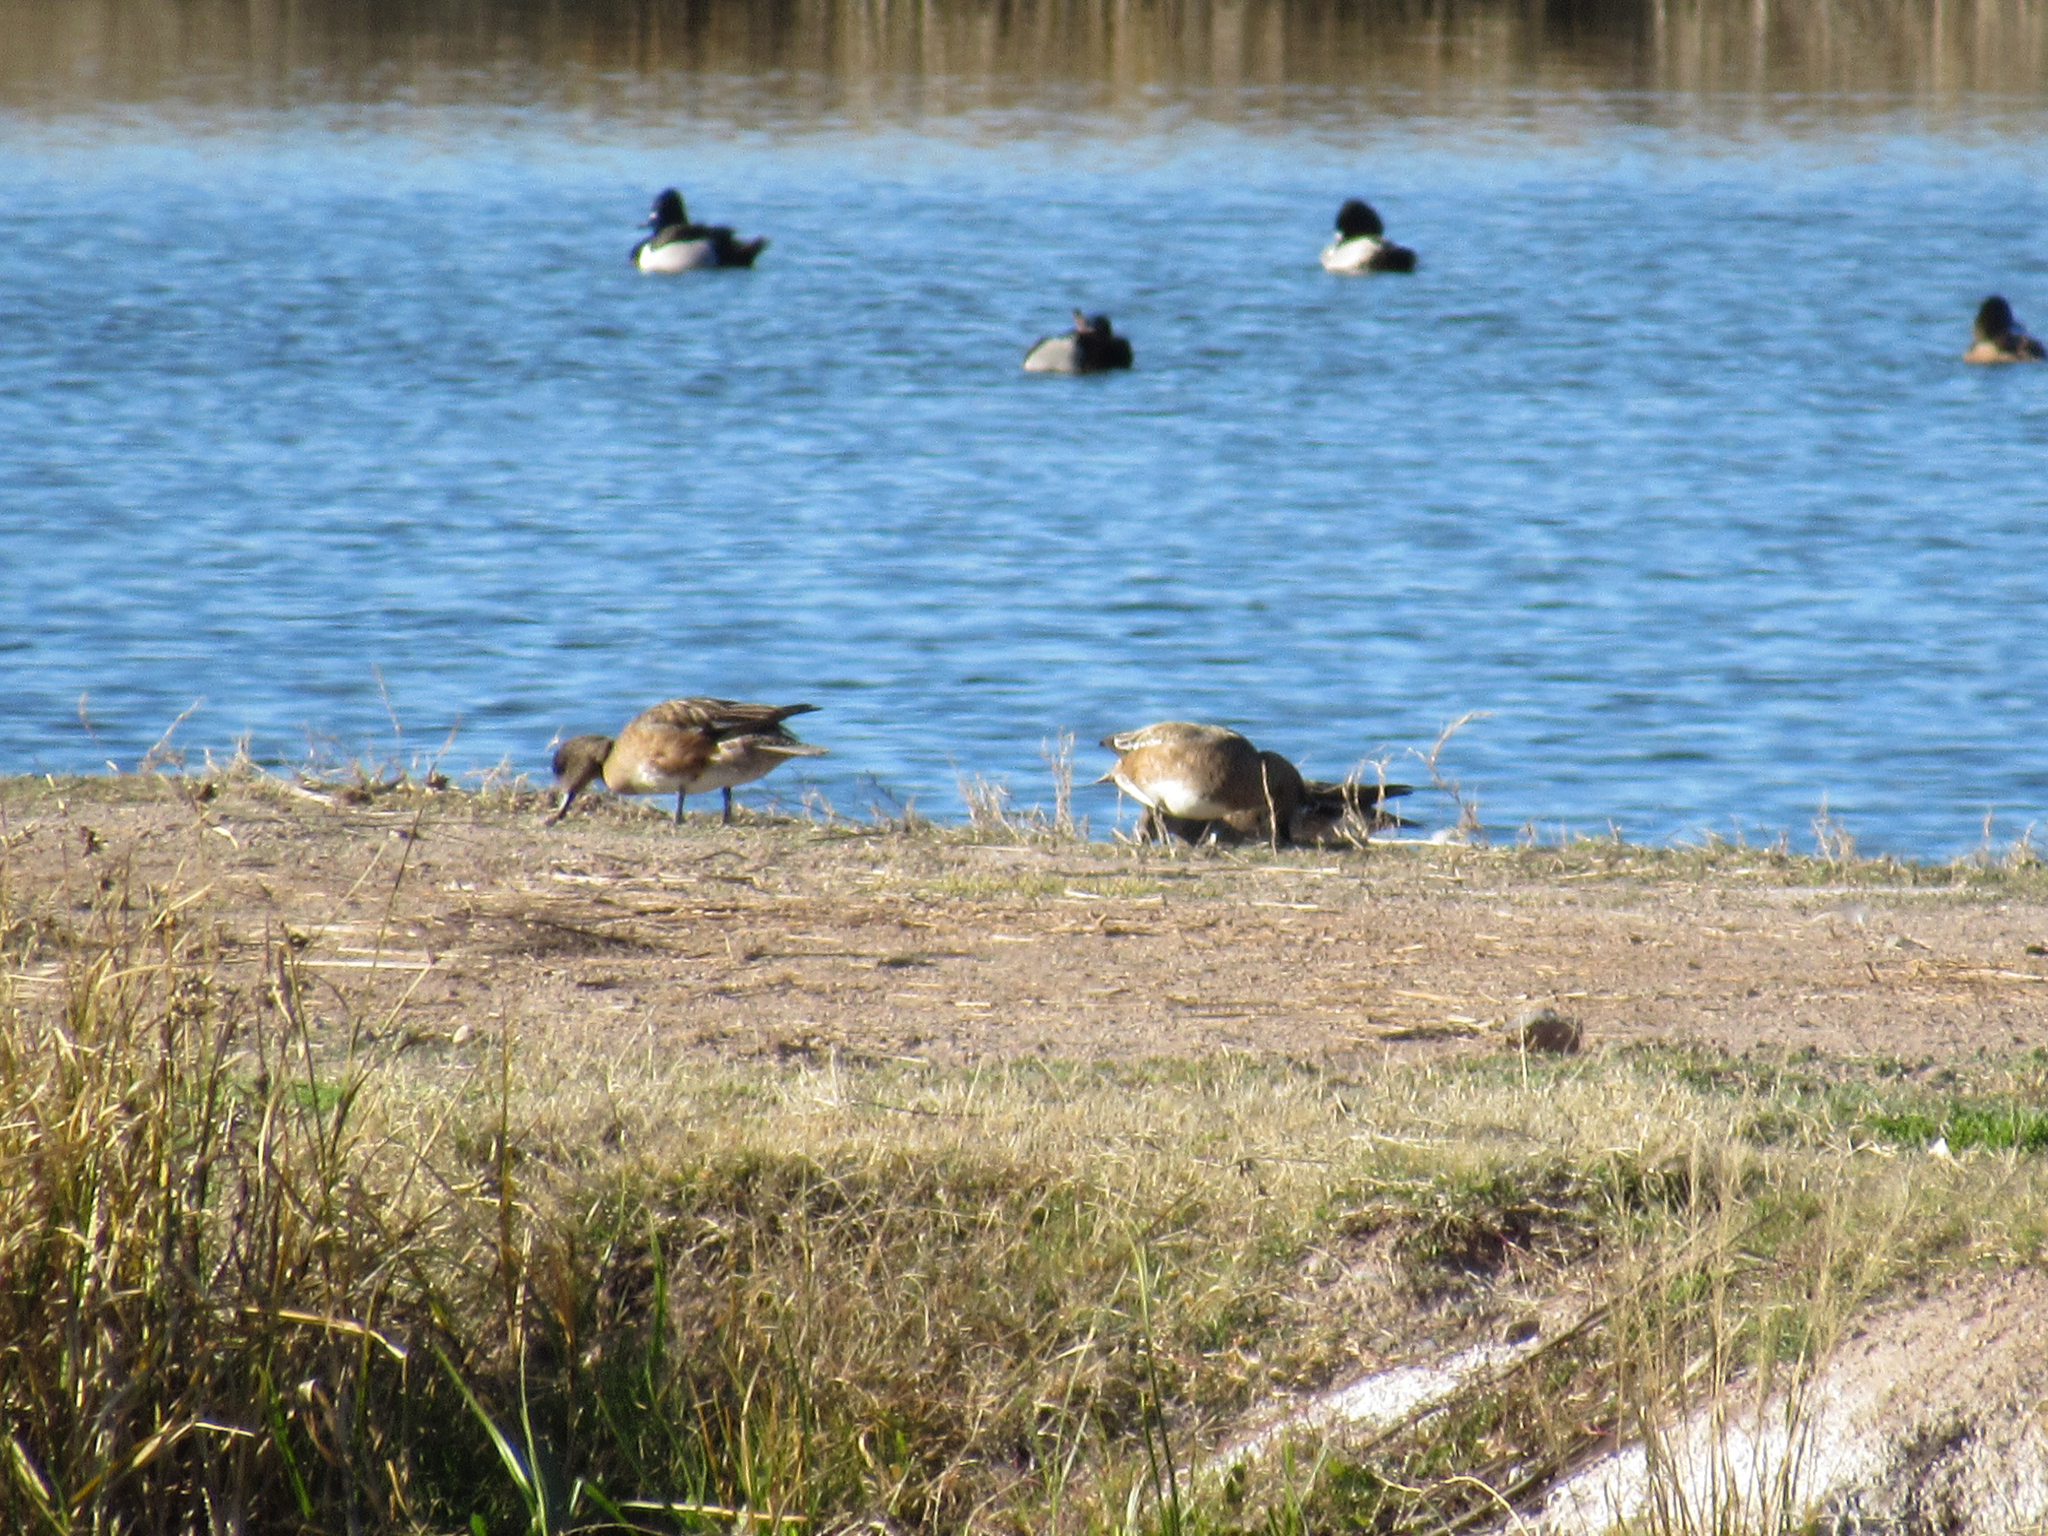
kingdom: Animalia
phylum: Chordata
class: Aves
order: Anseriformes
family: Anatidae
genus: Mareca
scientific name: Mareca americana
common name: American wigeon
